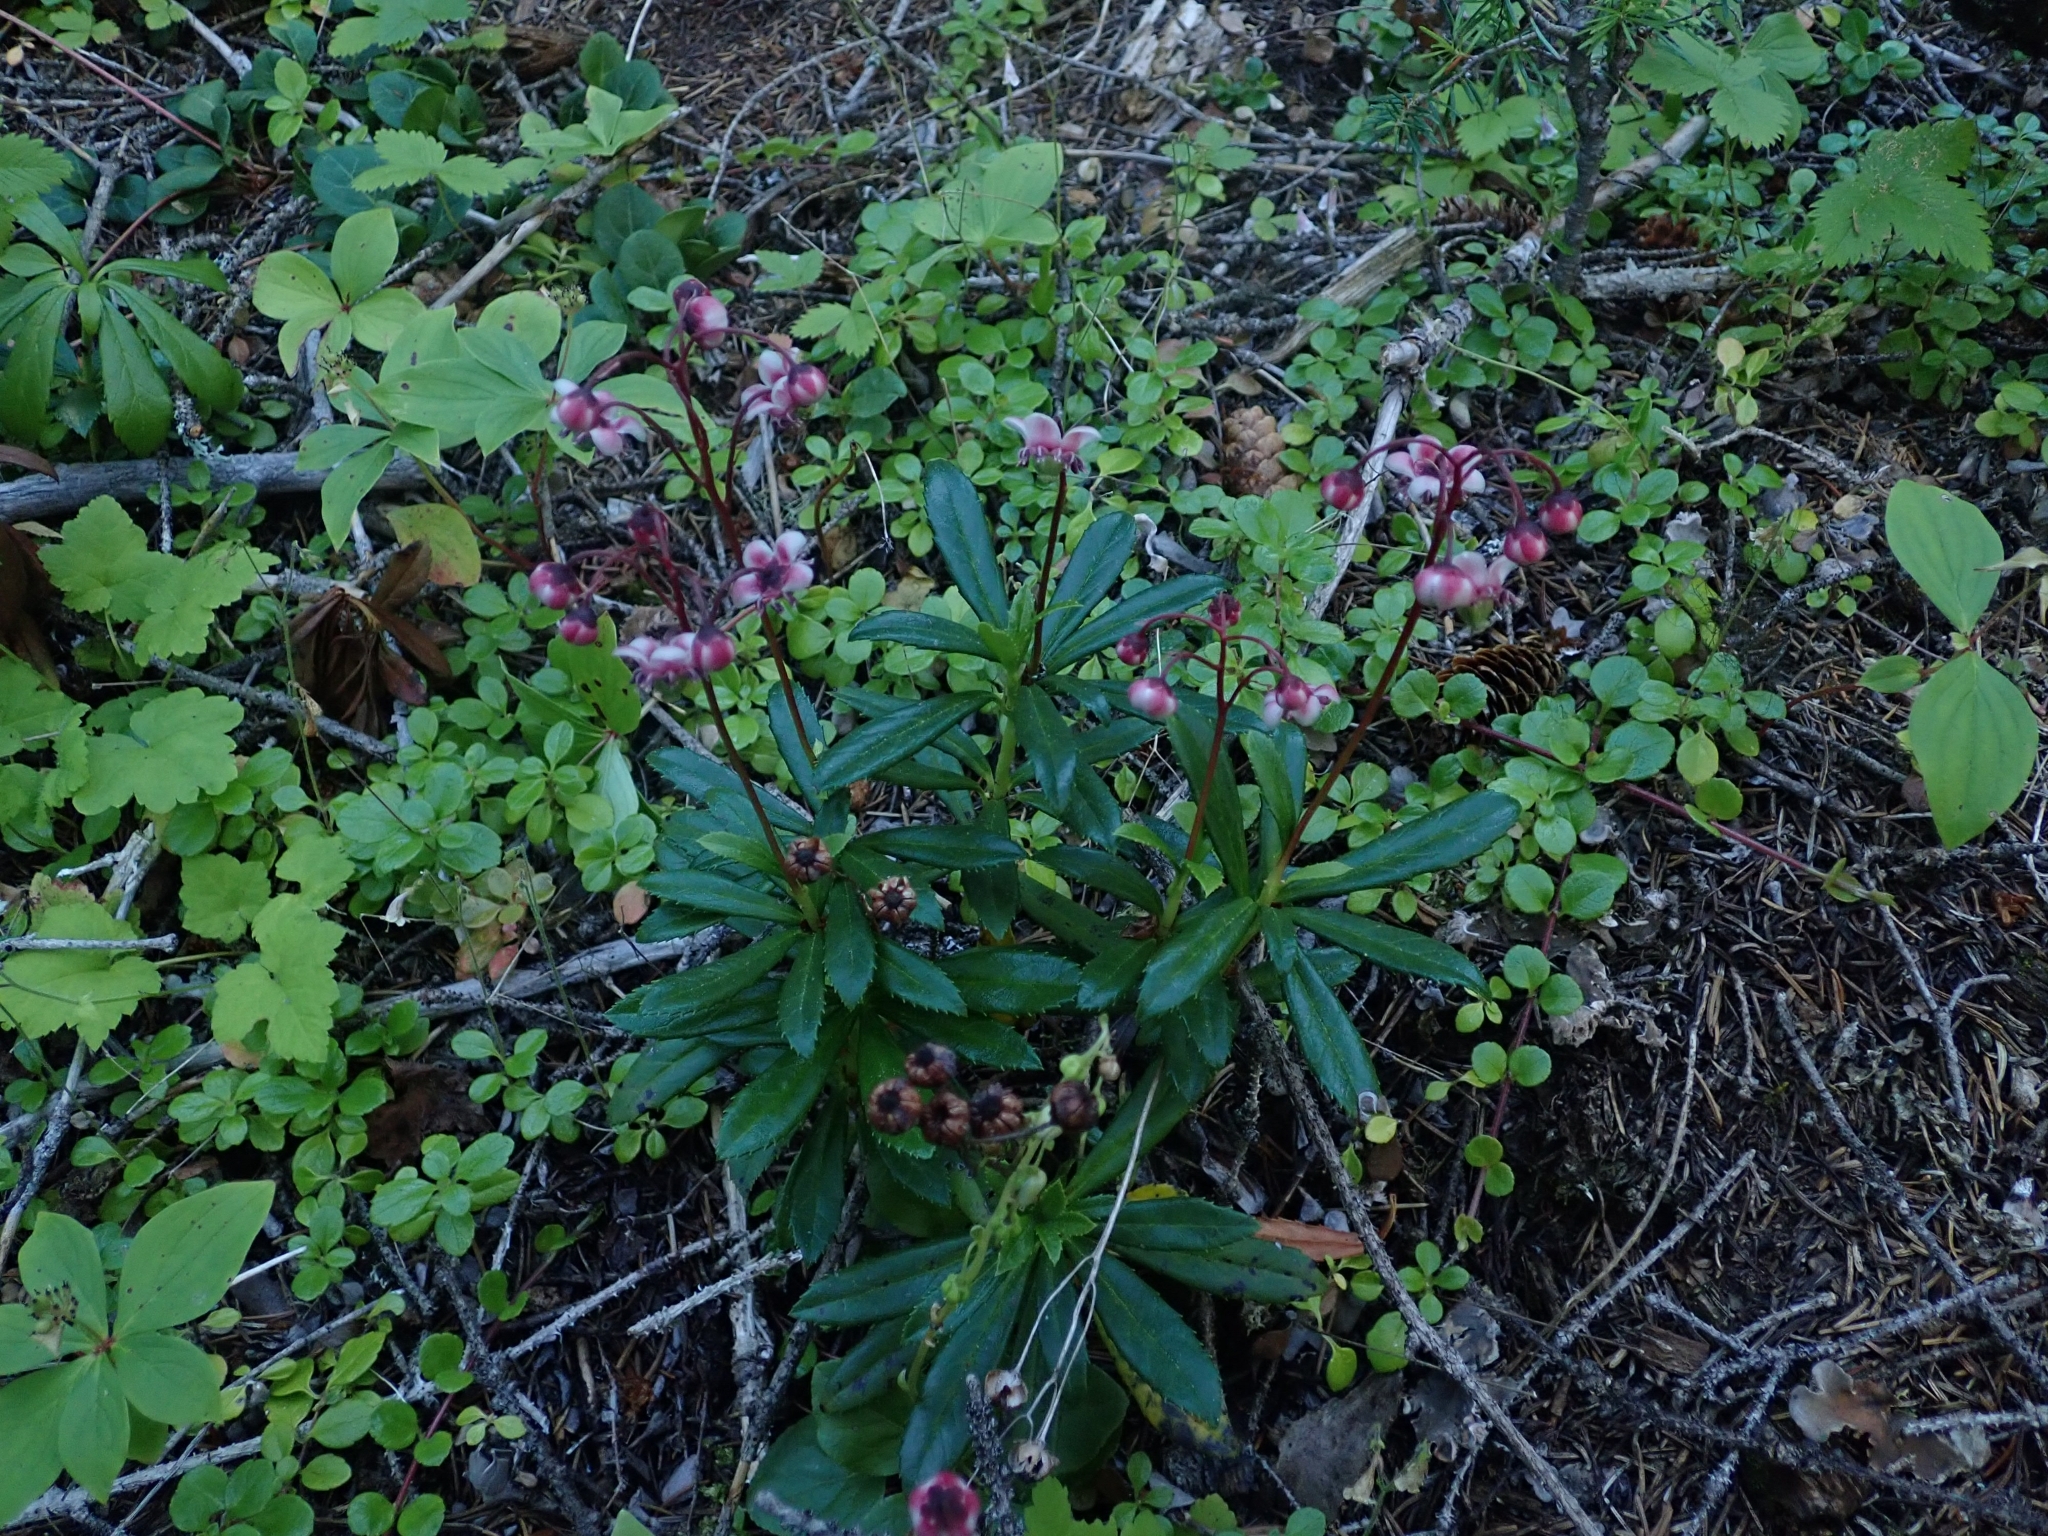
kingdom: Plantae
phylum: Tracheophyta
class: Magnoliopsida
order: Ericales
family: Ericaceae
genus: Chimaphila
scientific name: Chimaphila umbellata
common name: Pipsissewa
